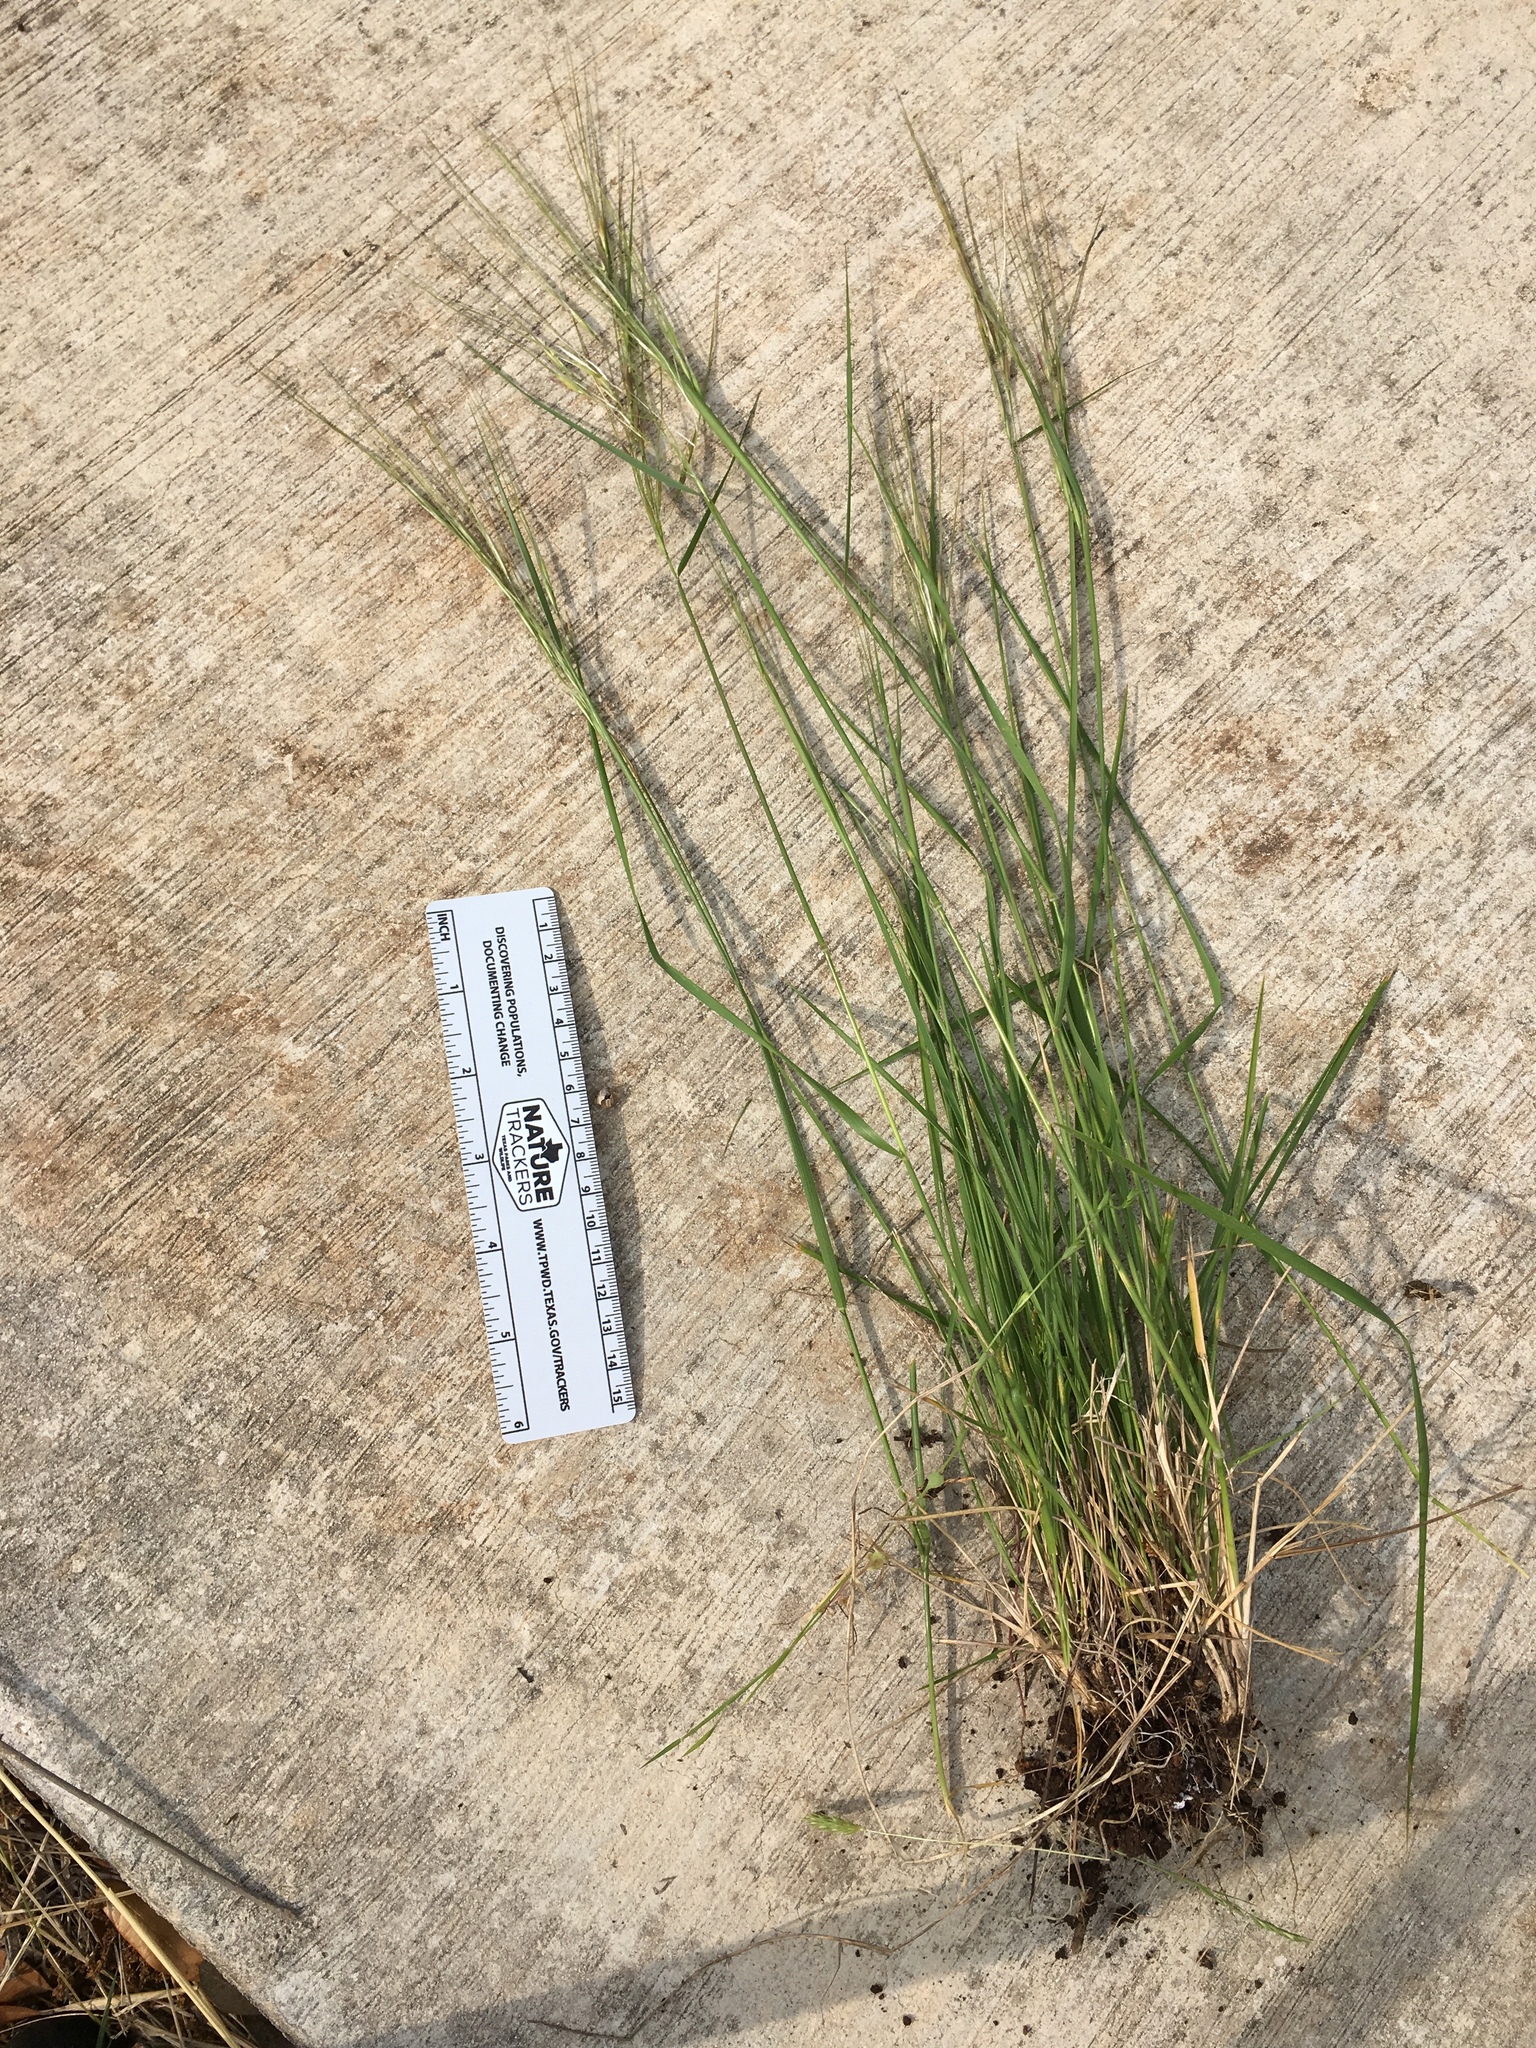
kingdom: Plantae
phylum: Tracheophyta
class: Liliopsida
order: Poales
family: Poaceae
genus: Nassella
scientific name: Nassella leucotricha
